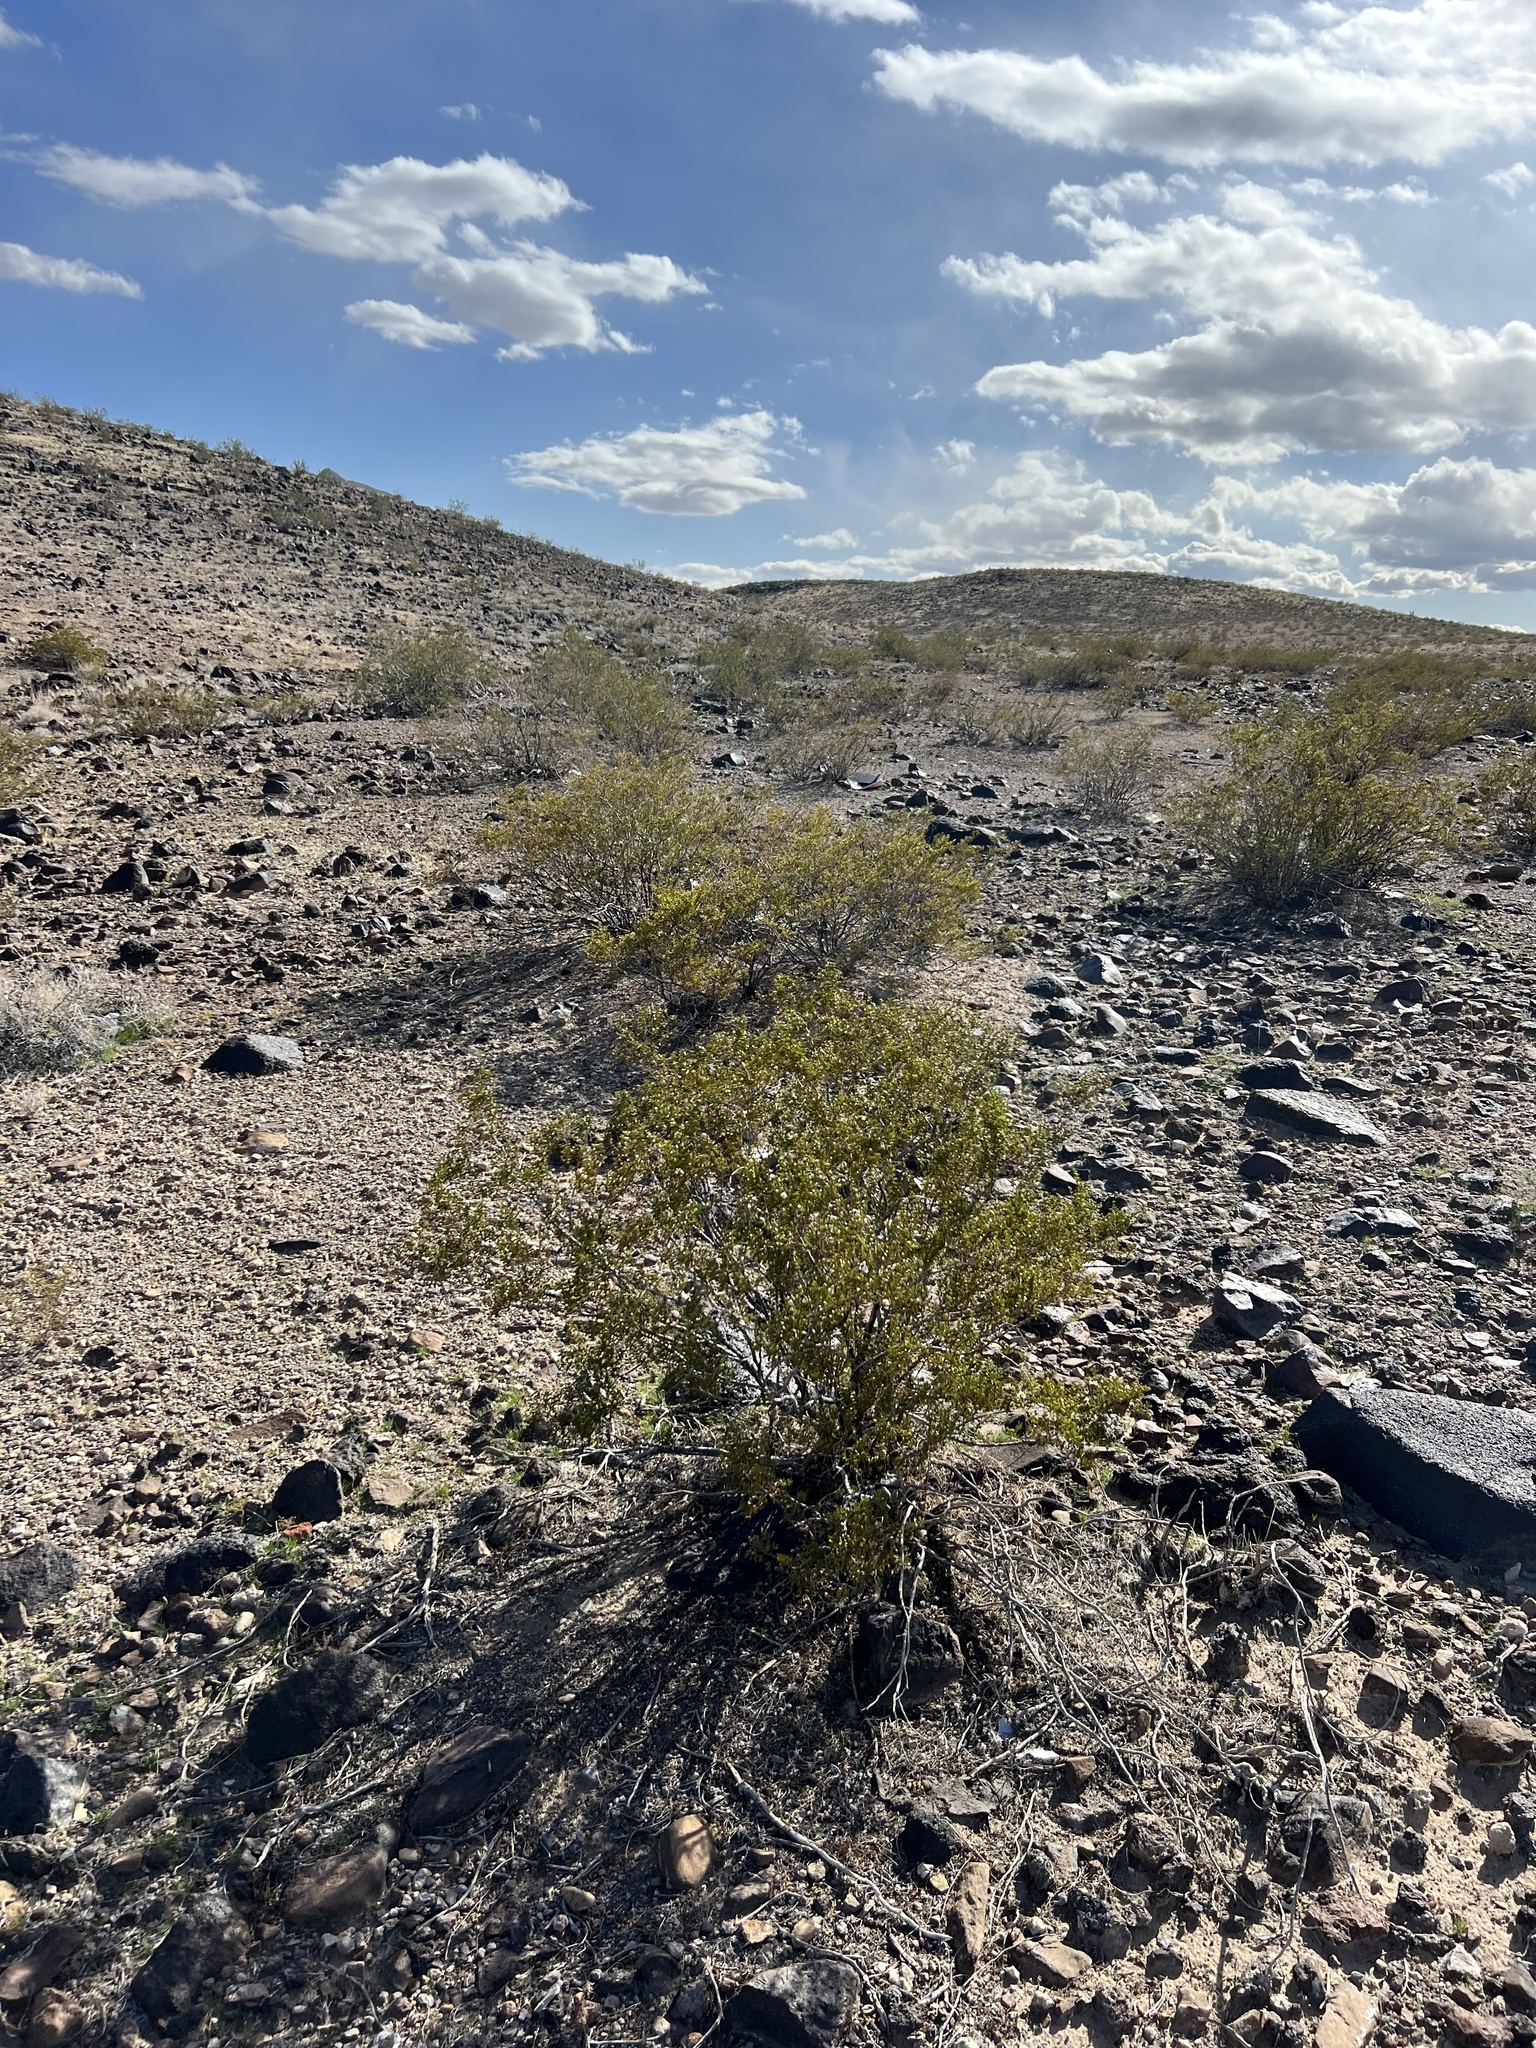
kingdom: Plantae
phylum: Tracheophyta
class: Magnoliopsida
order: Zygophyllales
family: Zygophyllaceae
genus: Larrea
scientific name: Larrea tridentata
